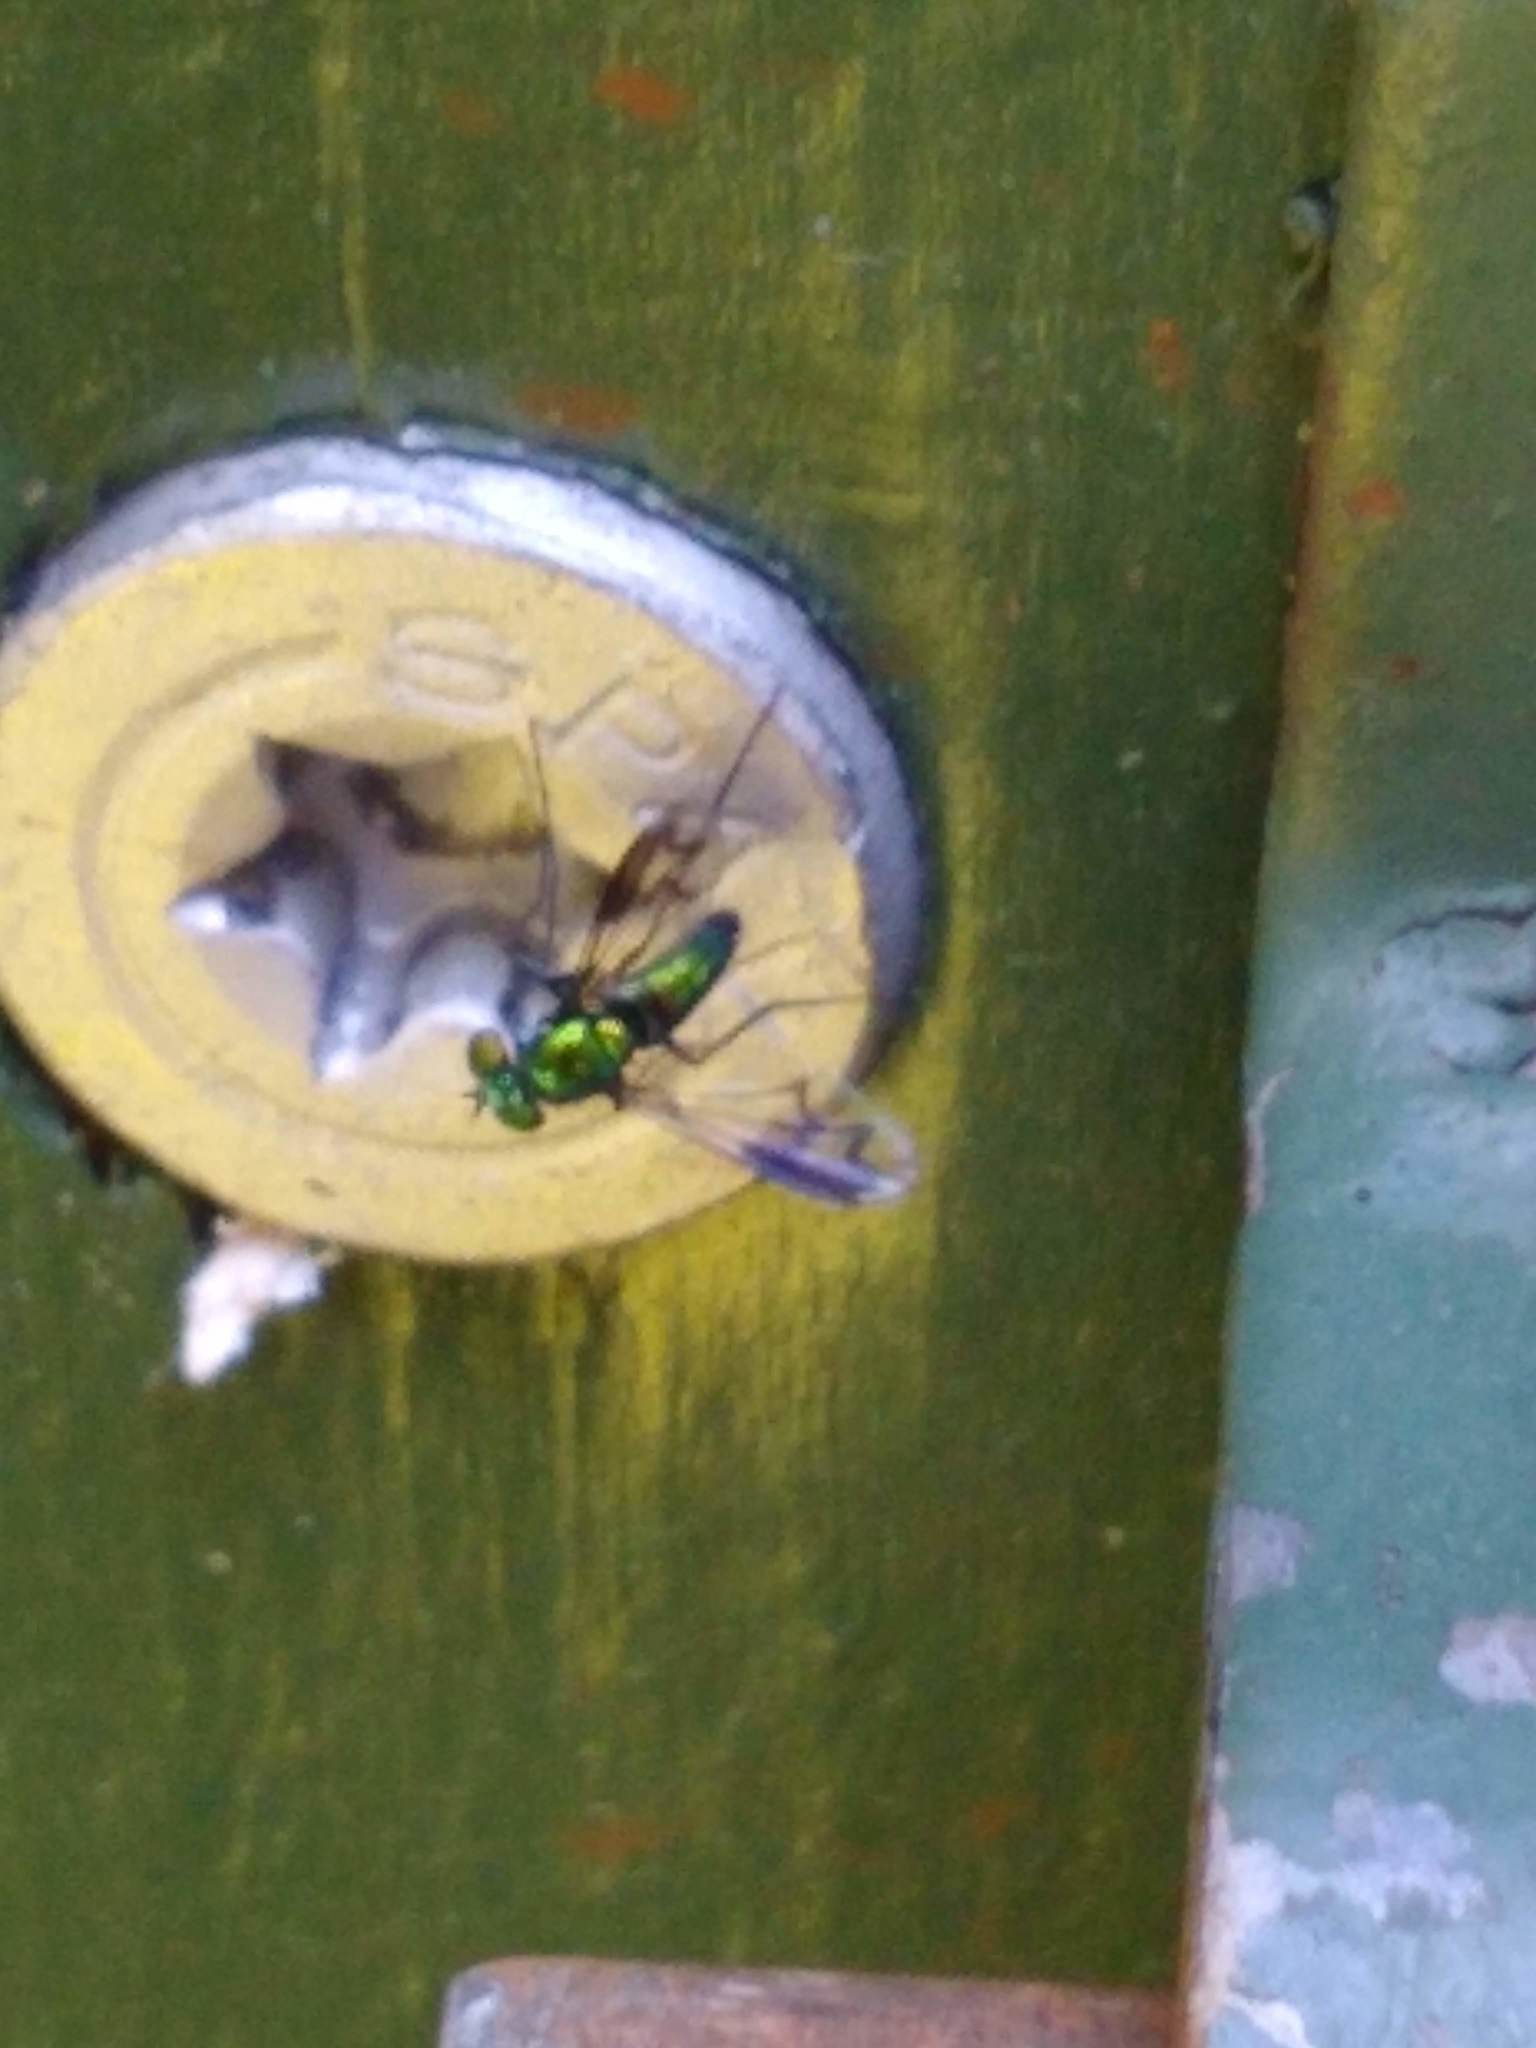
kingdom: Animalia
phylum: Arthropoda
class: Insecta
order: Diptera
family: Dolichopodidae
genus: Condylostylus
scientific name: Condylostylus patibulatus
